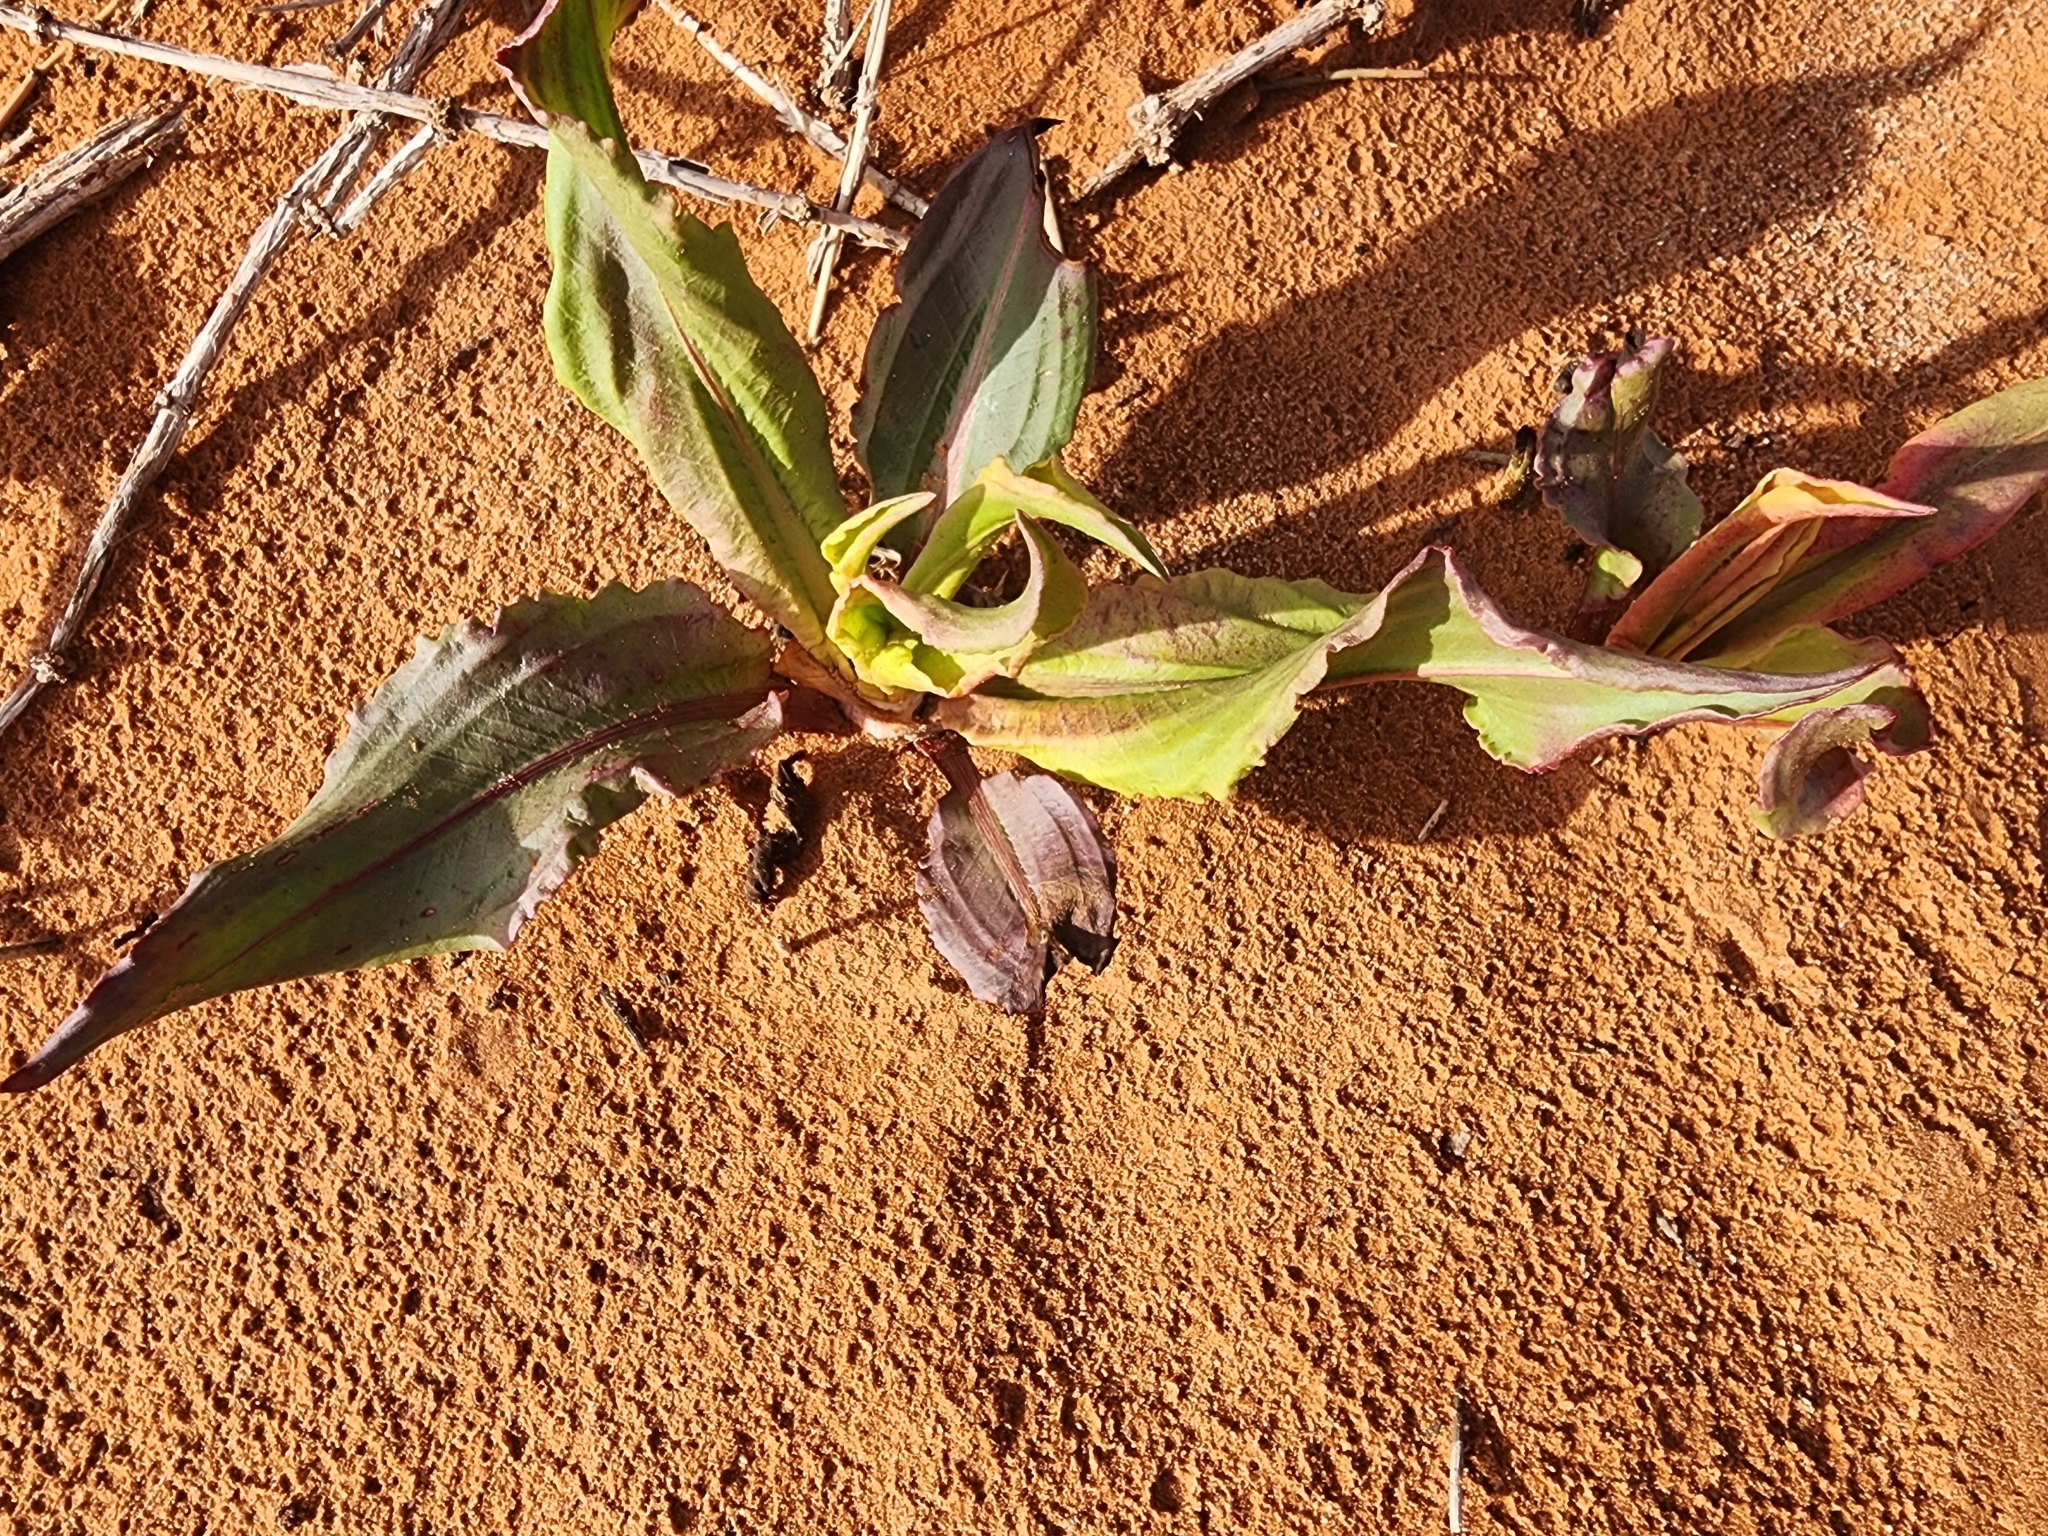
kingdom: Plantae
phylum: Tracheophyta
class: Magnoliopsida
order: Caryophyllales
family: Polygonaceae
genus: Rumex
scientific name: Rumex hymenosepalus
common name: Ganagra
